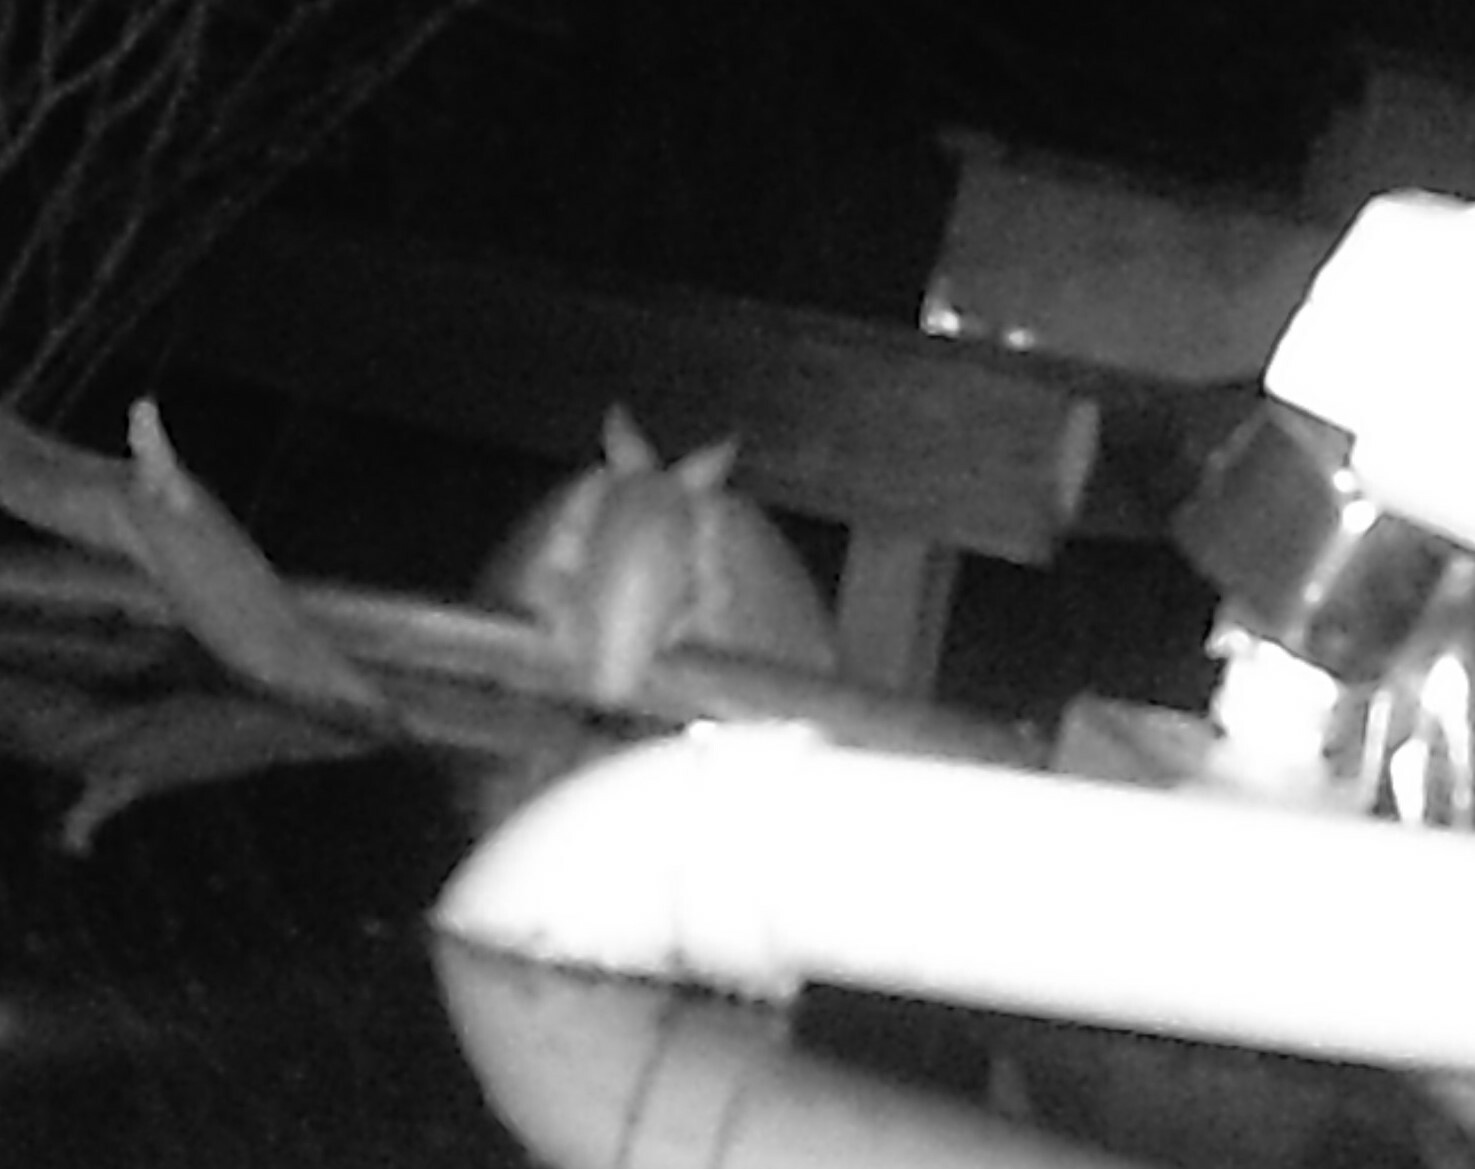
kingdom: Animalia
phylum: Chordata
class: Mammalia
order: Cingulata
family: Dasypodidae
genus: Dasypus
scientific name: Dasypus novemcinctus
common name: Nine-banded armadillo
